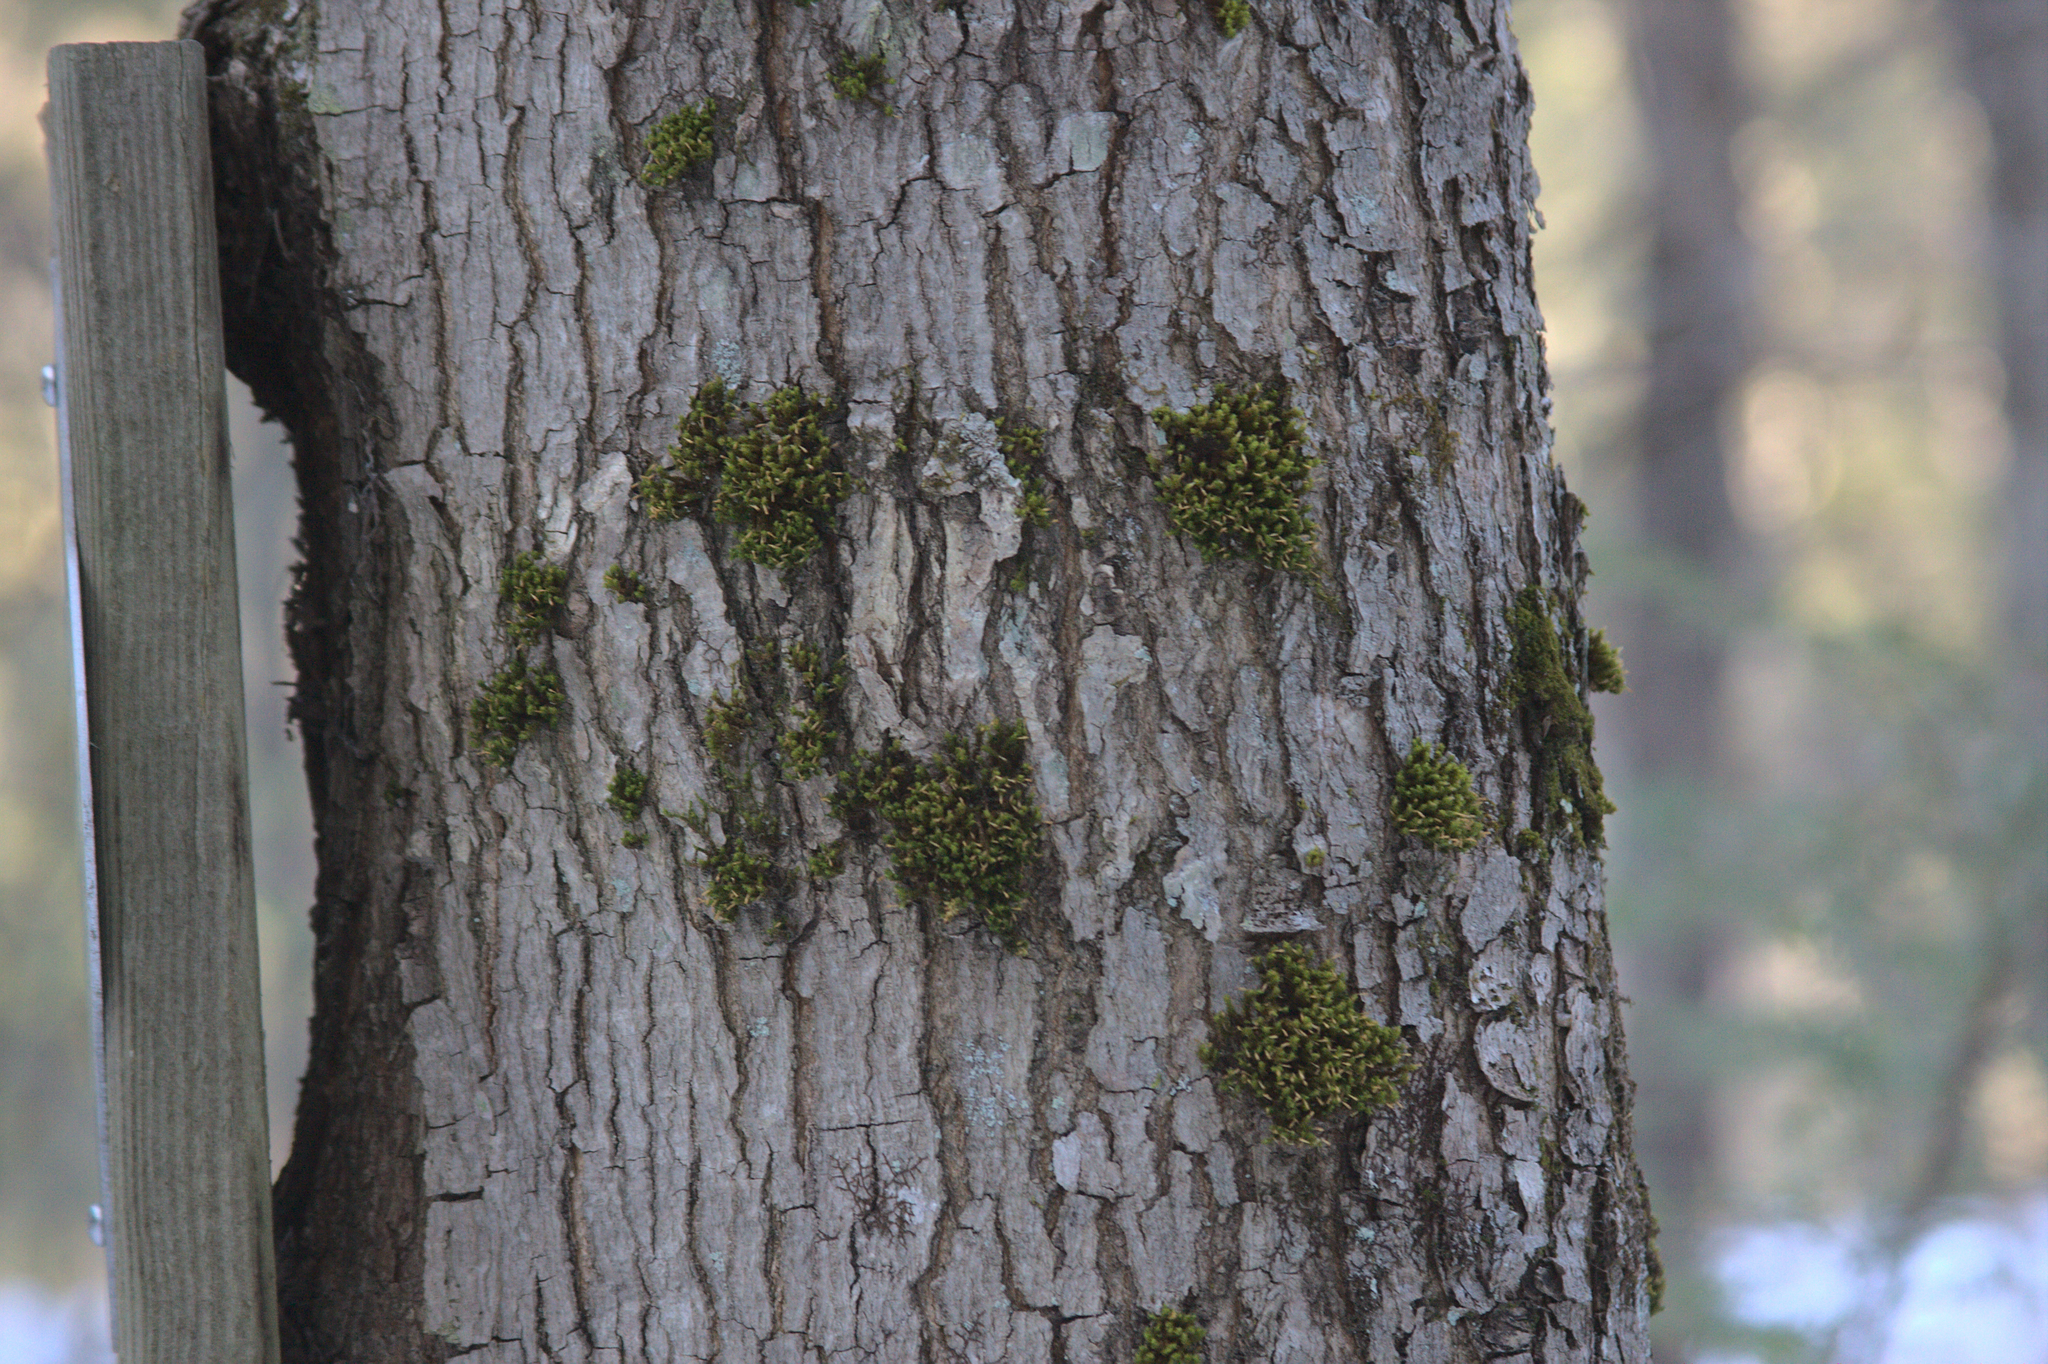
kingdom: Plantae
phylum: Bryophyta
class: Bryopsida
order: Orthotrichales
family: Orthotrichaceae
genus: Ulota
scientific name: Ulota crispa
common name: Crisped pincushion moss
